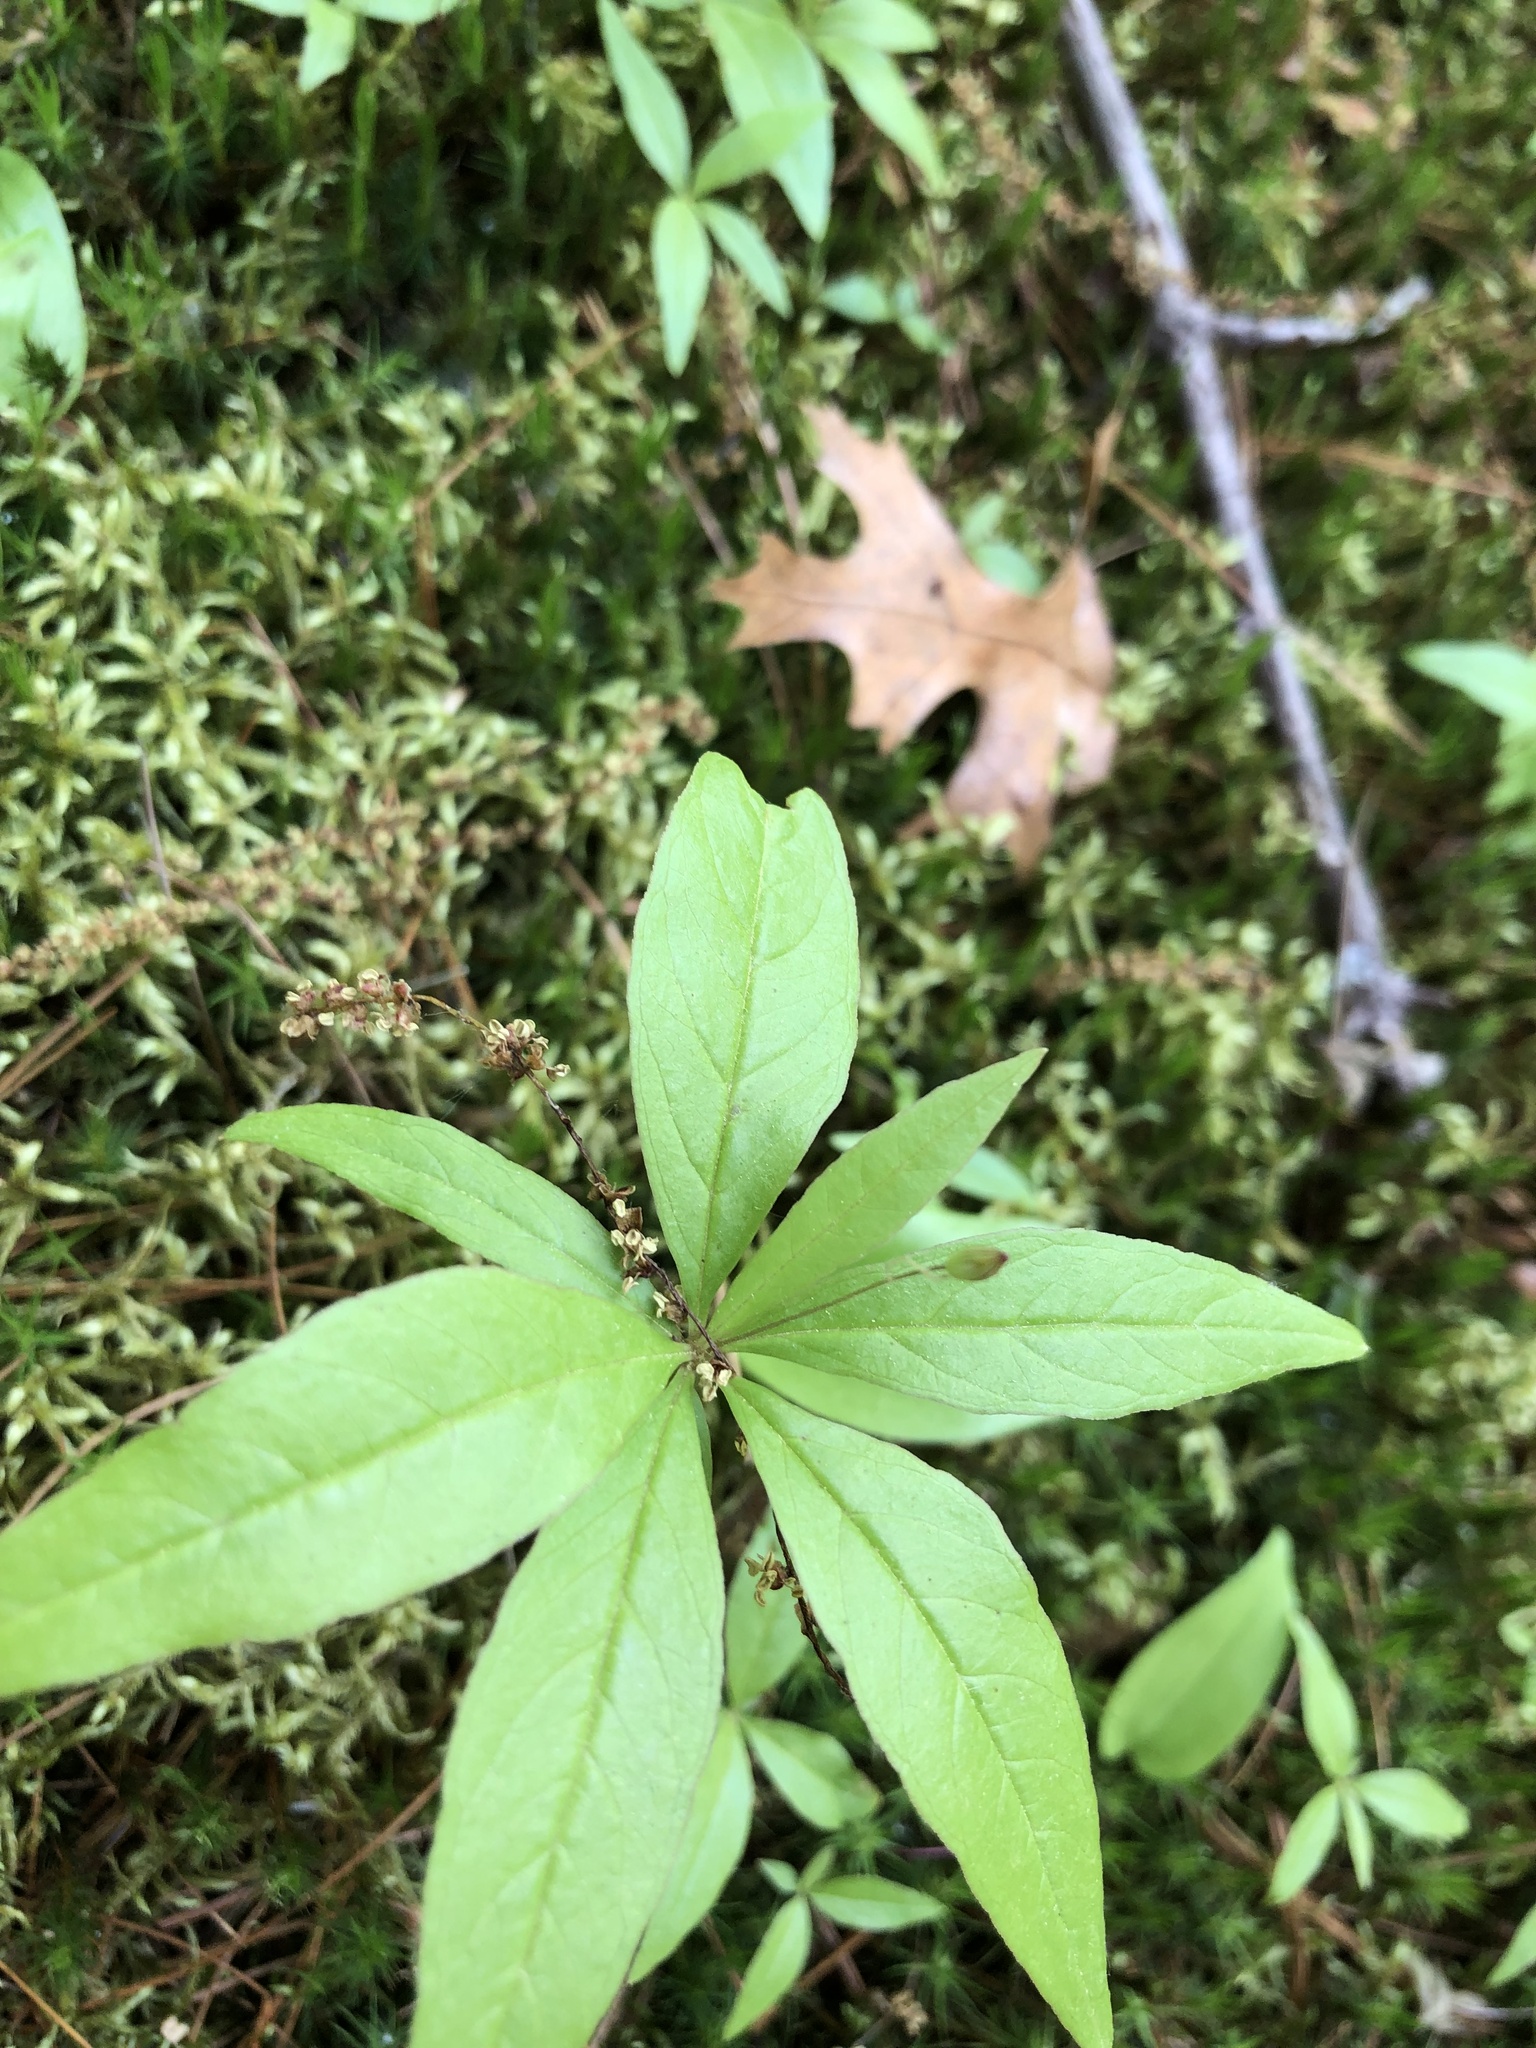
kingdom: Plantae
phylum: Tracheophyta
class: Magnoliopsida
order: Ericales
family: Primulaceae
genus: Lysimachia
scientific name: Lysimachia borealis
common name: American starflower
